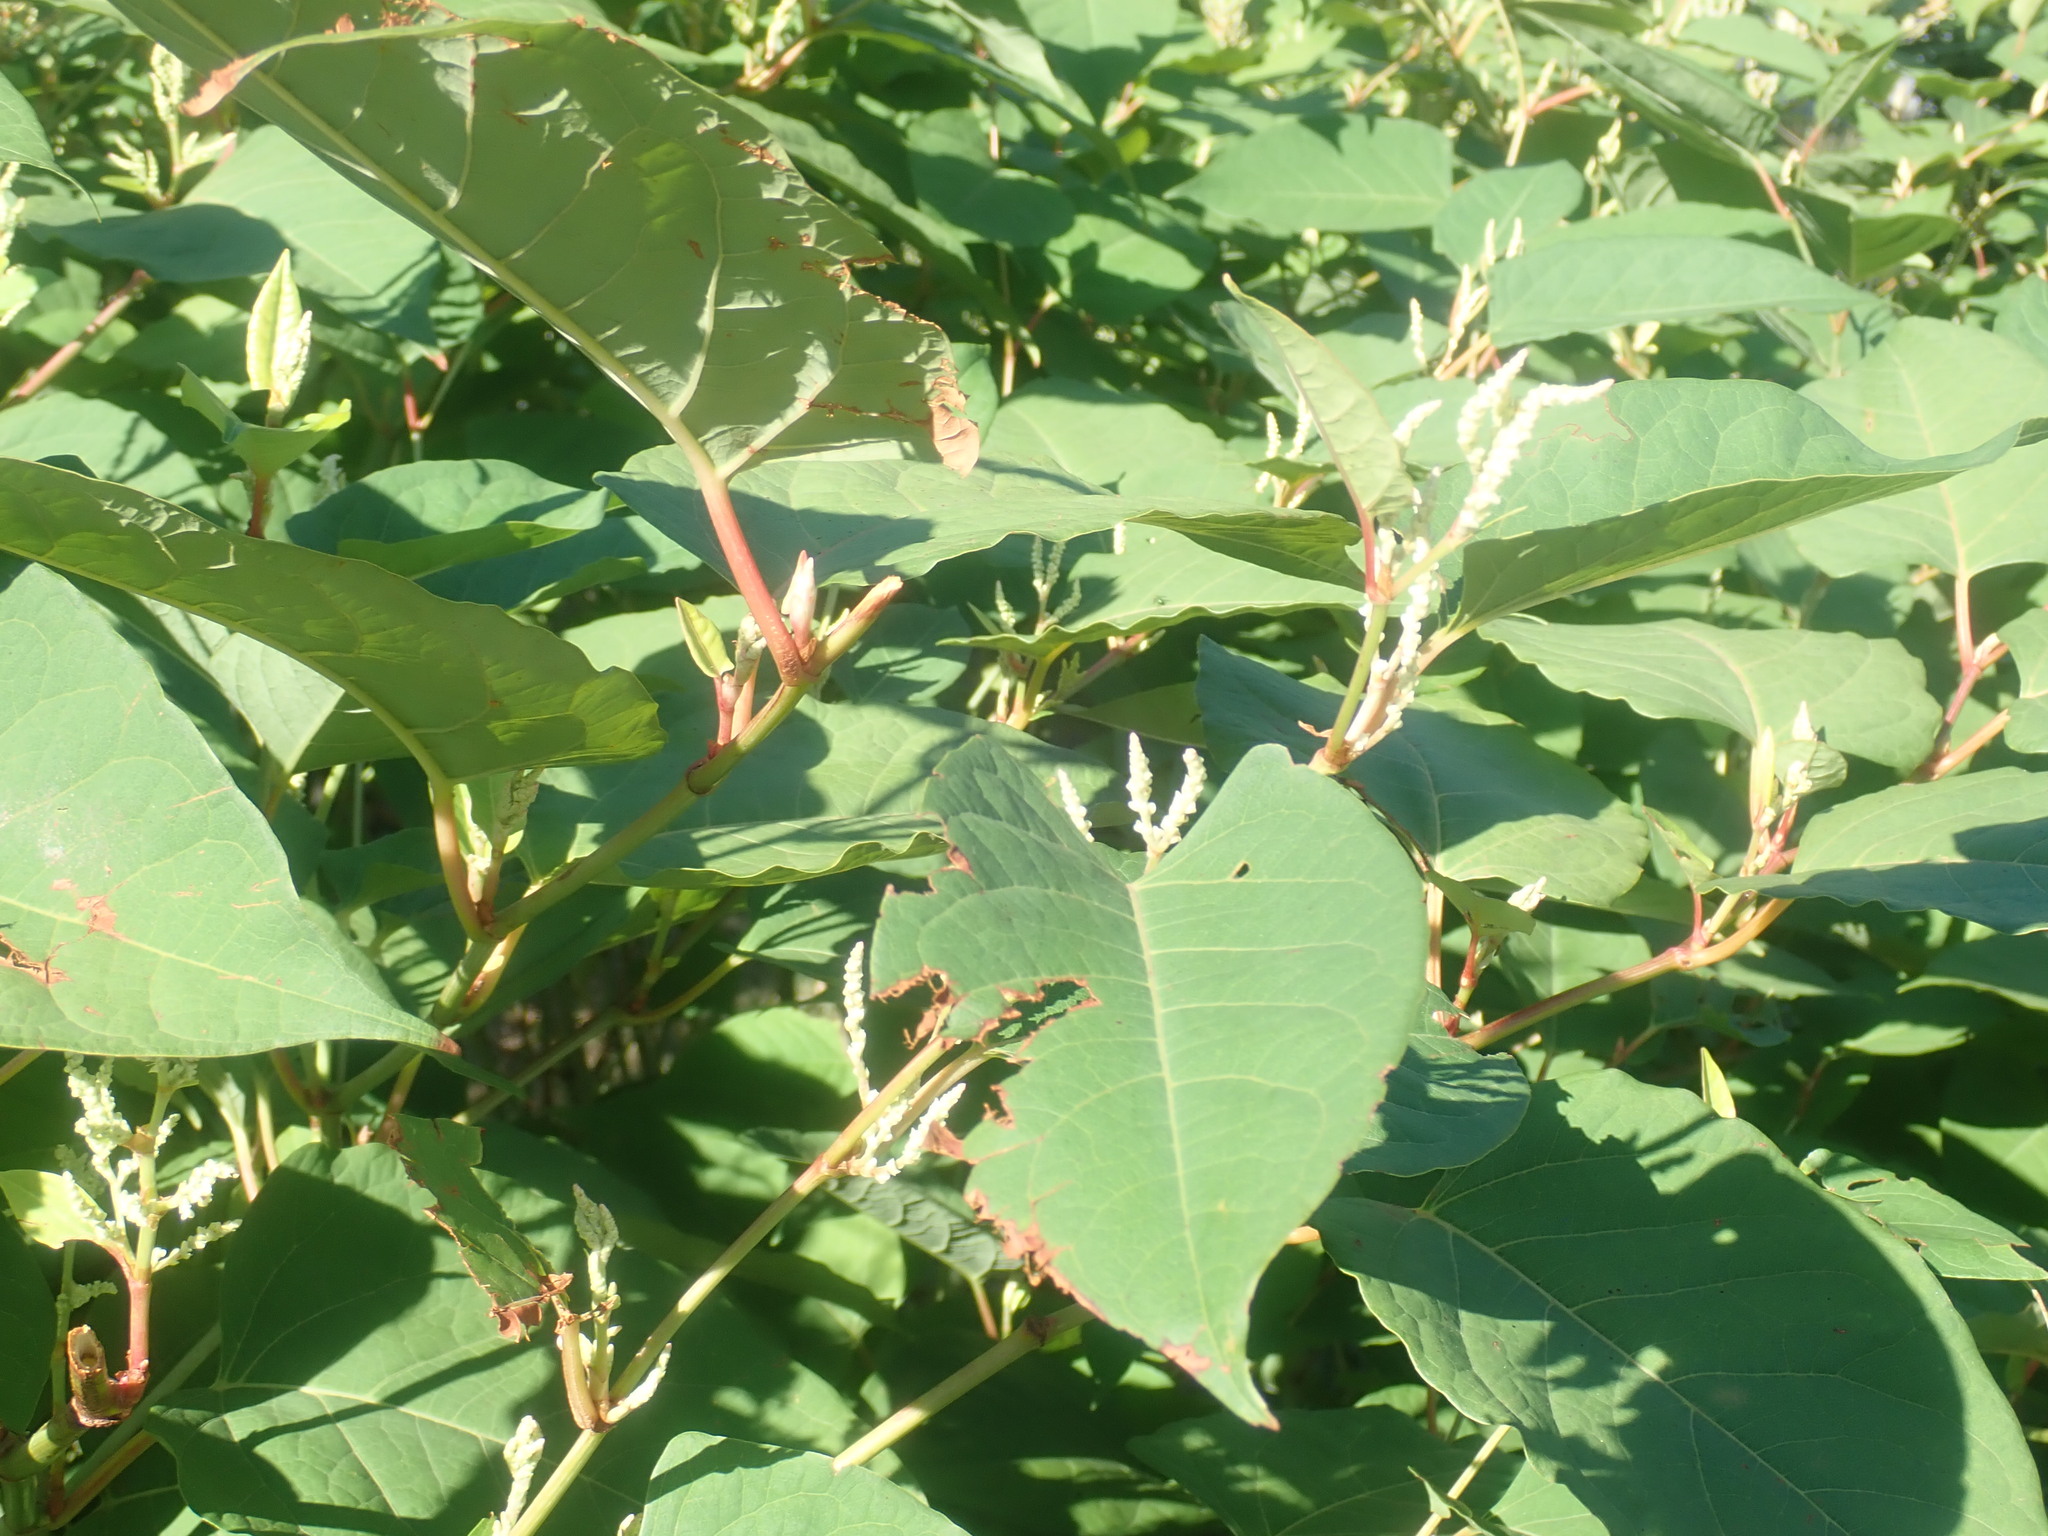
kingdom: Plantae
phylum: Tracheophyta
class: Magnoliopsida
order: Caryophyllales
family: Polygonaceae
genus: Reynoutria
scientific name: Reynoutria
